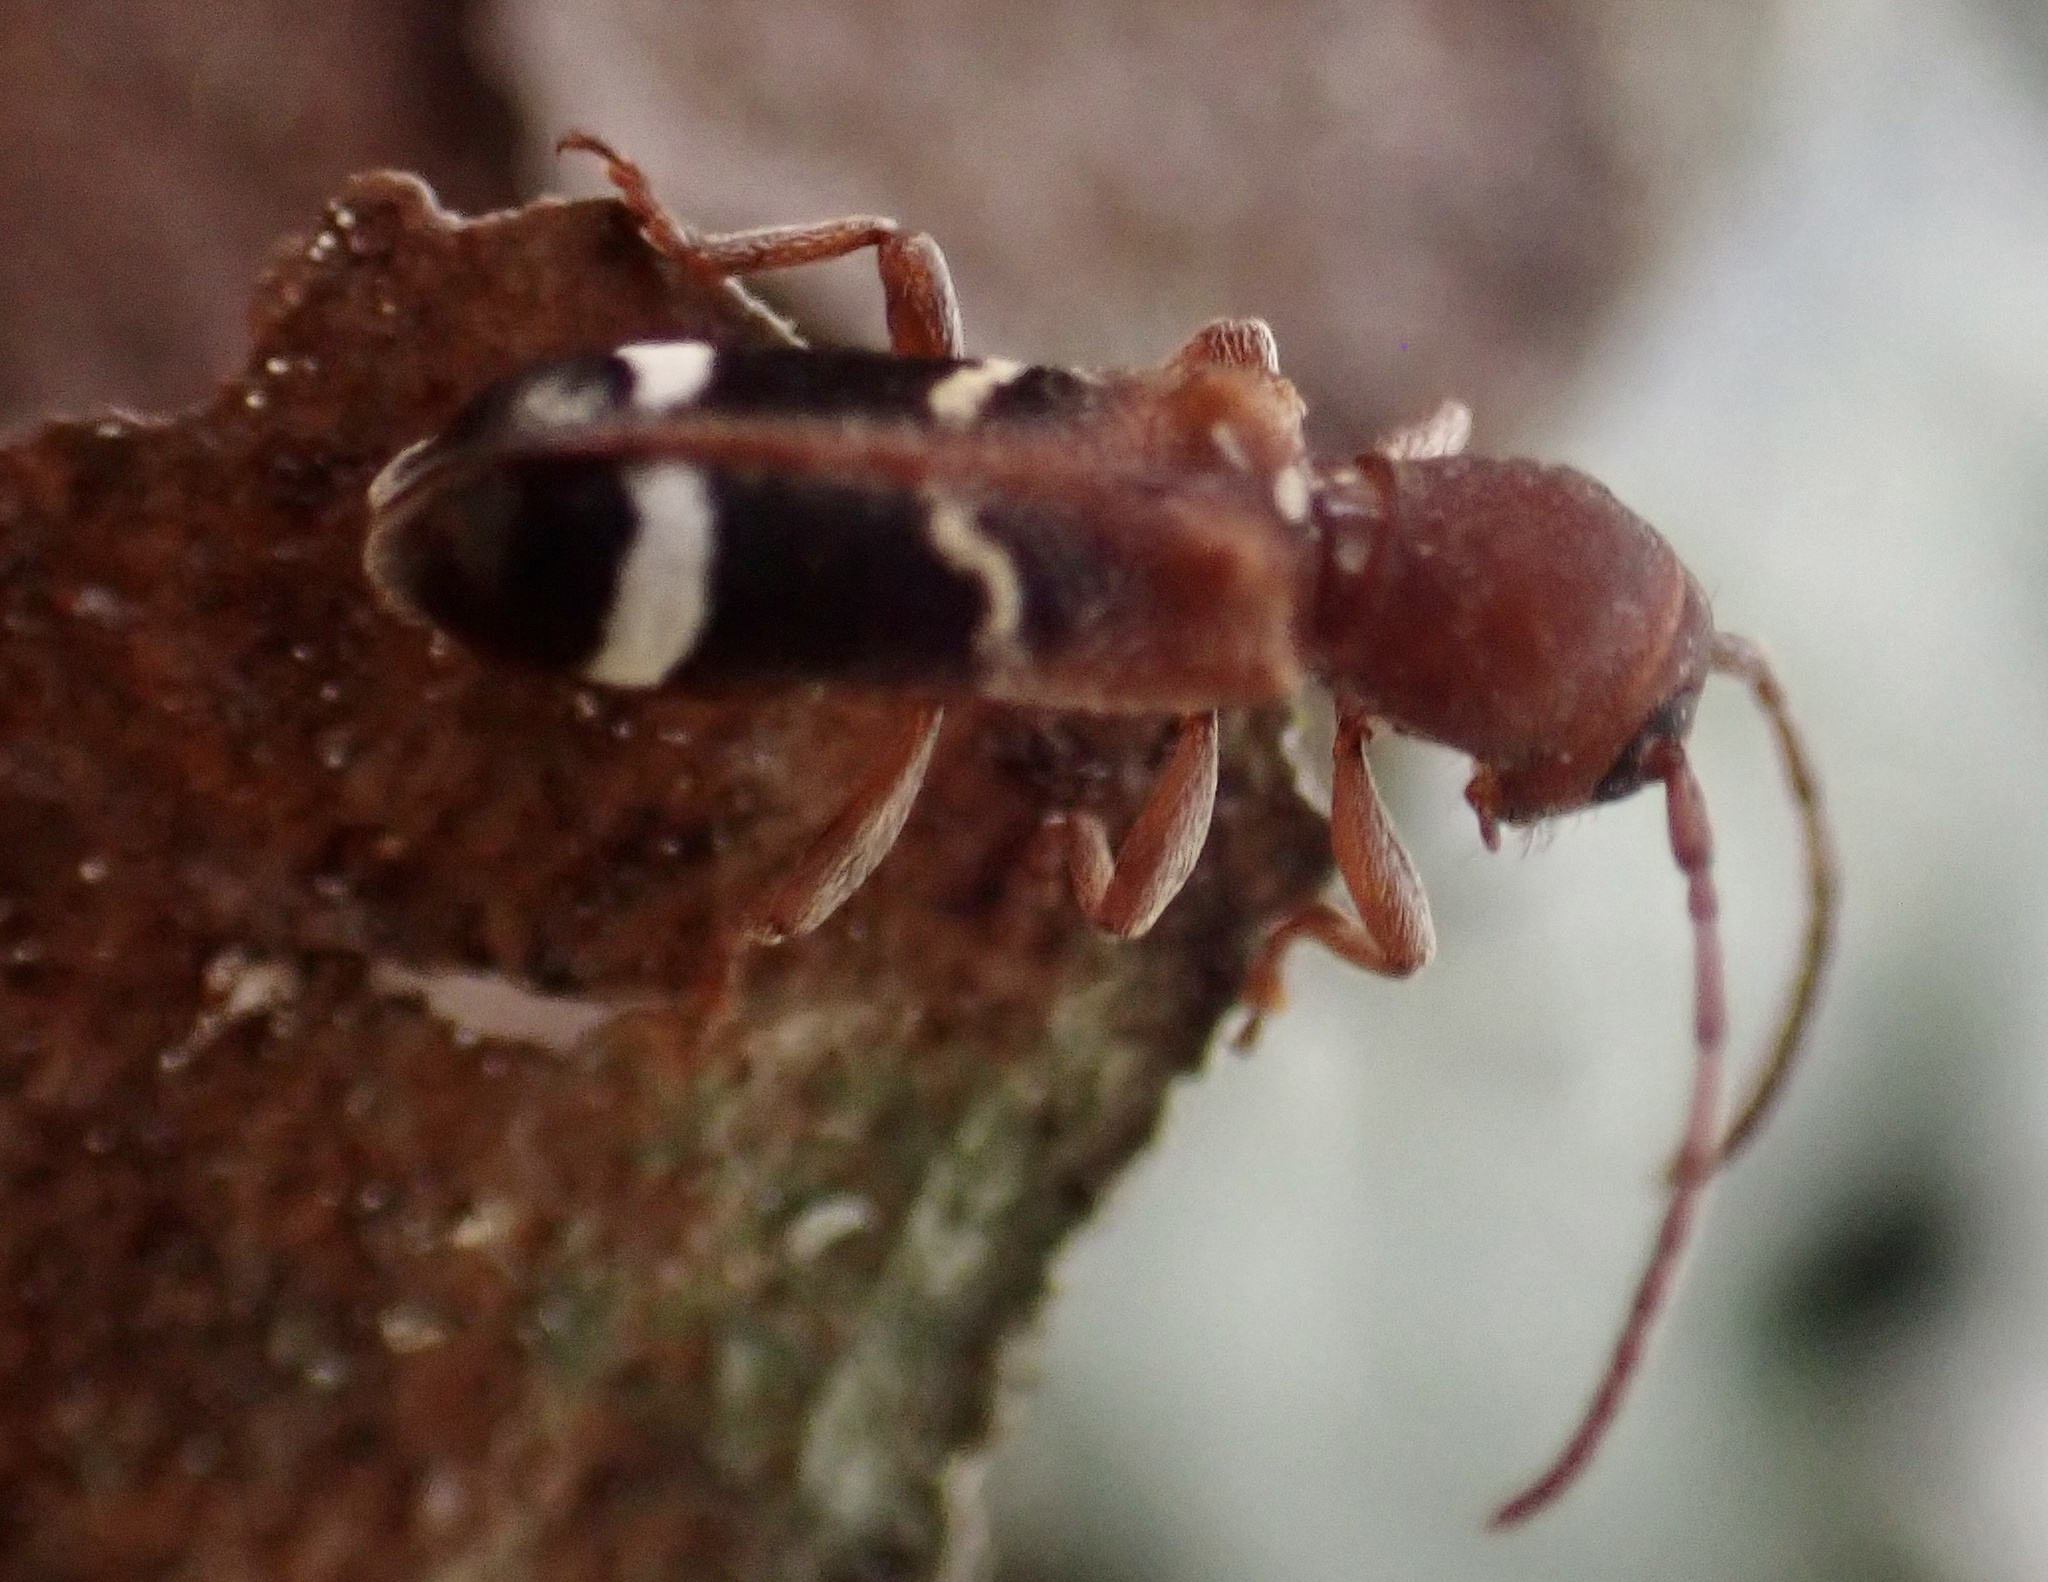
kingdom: Animalia
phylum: Arthropoda
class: Insecta
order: Coleoptera
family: Cerambycidae
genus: Psenocerus
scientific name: Psenocerus supernotatus
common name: Currant-tip borer
